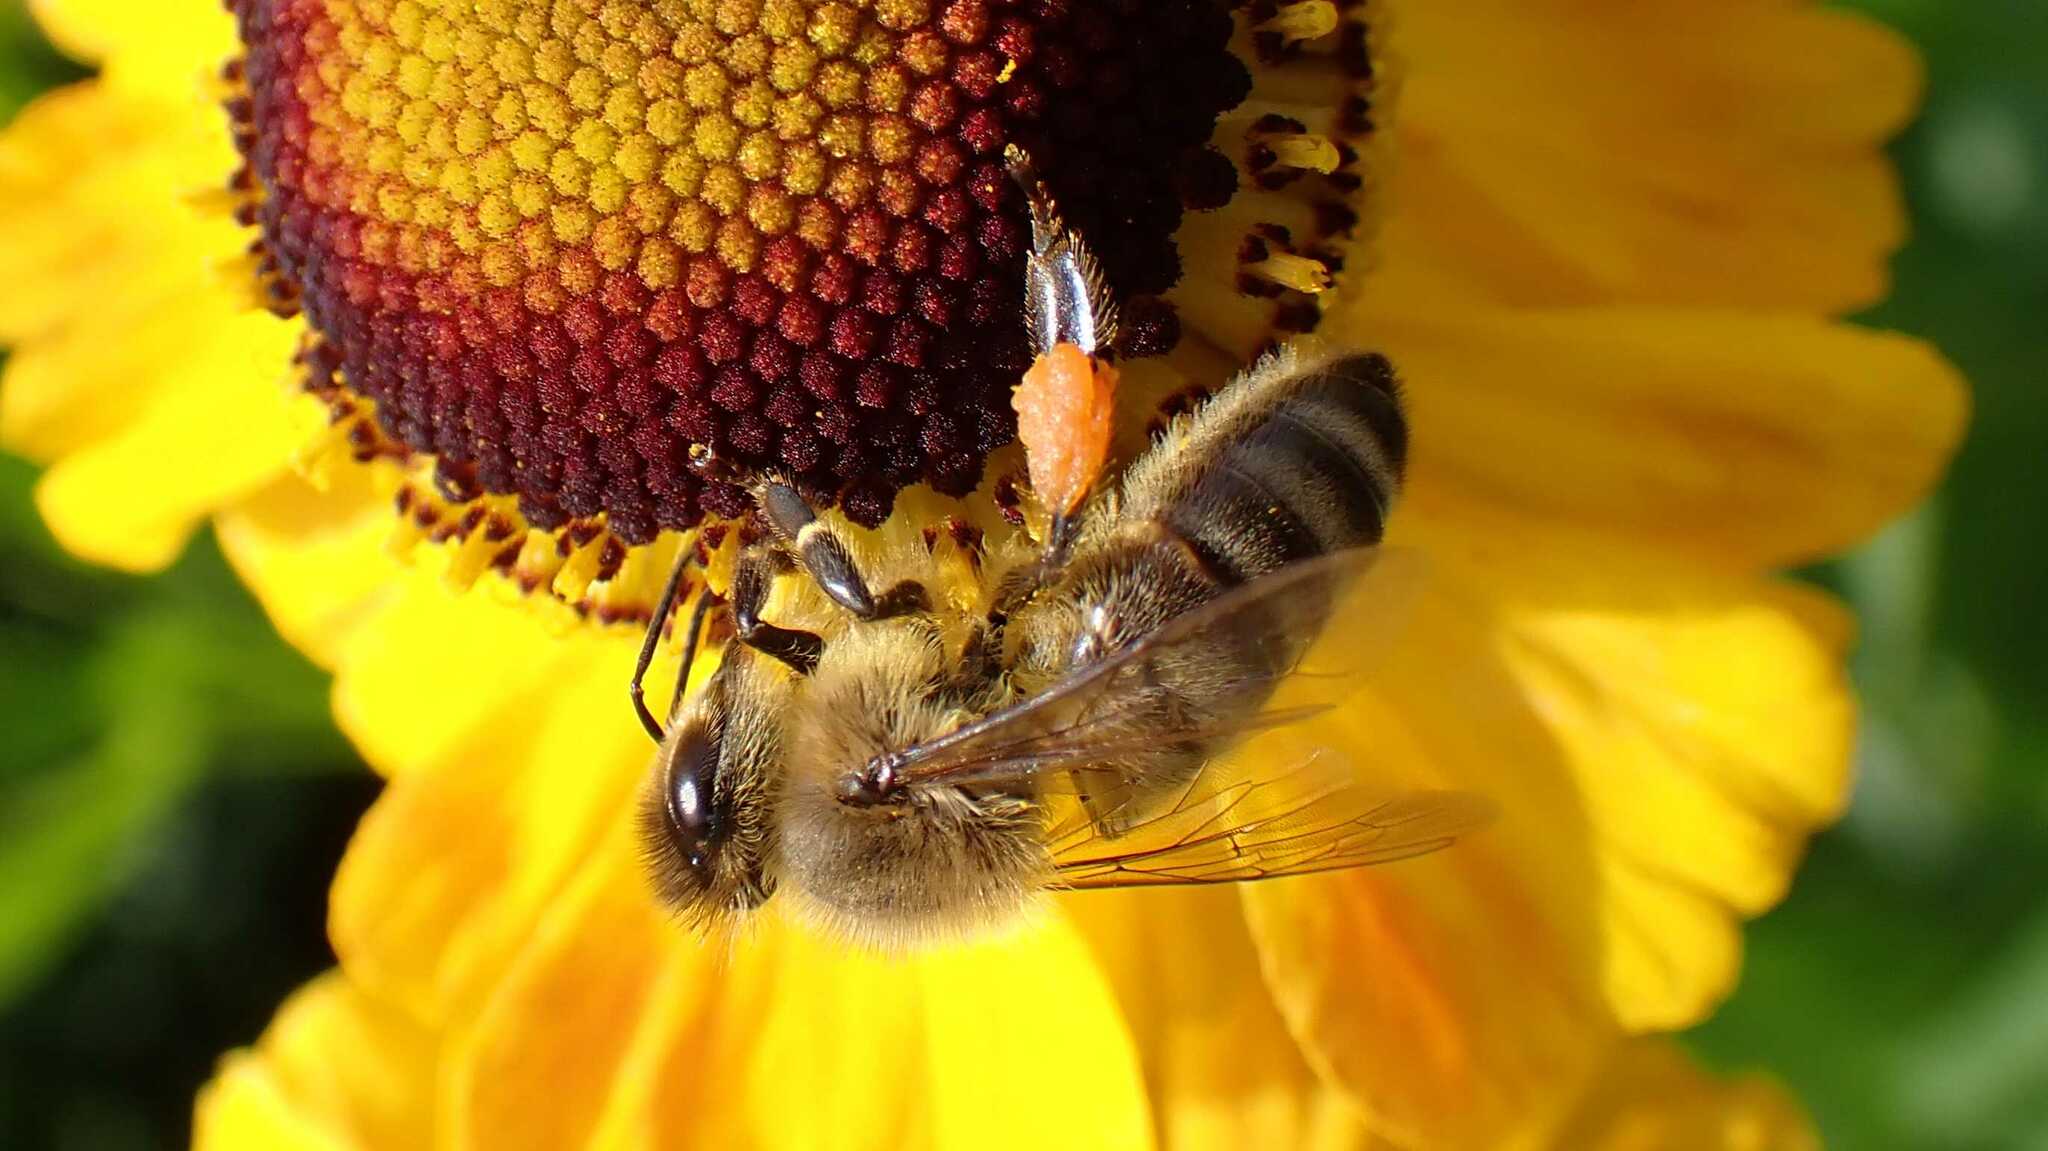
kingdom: Animalia
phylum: Arthropoda
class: Insecta
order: Hymenoptera
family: Apidae
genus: Apis
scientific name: Apis mellifera
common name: Honey bee
